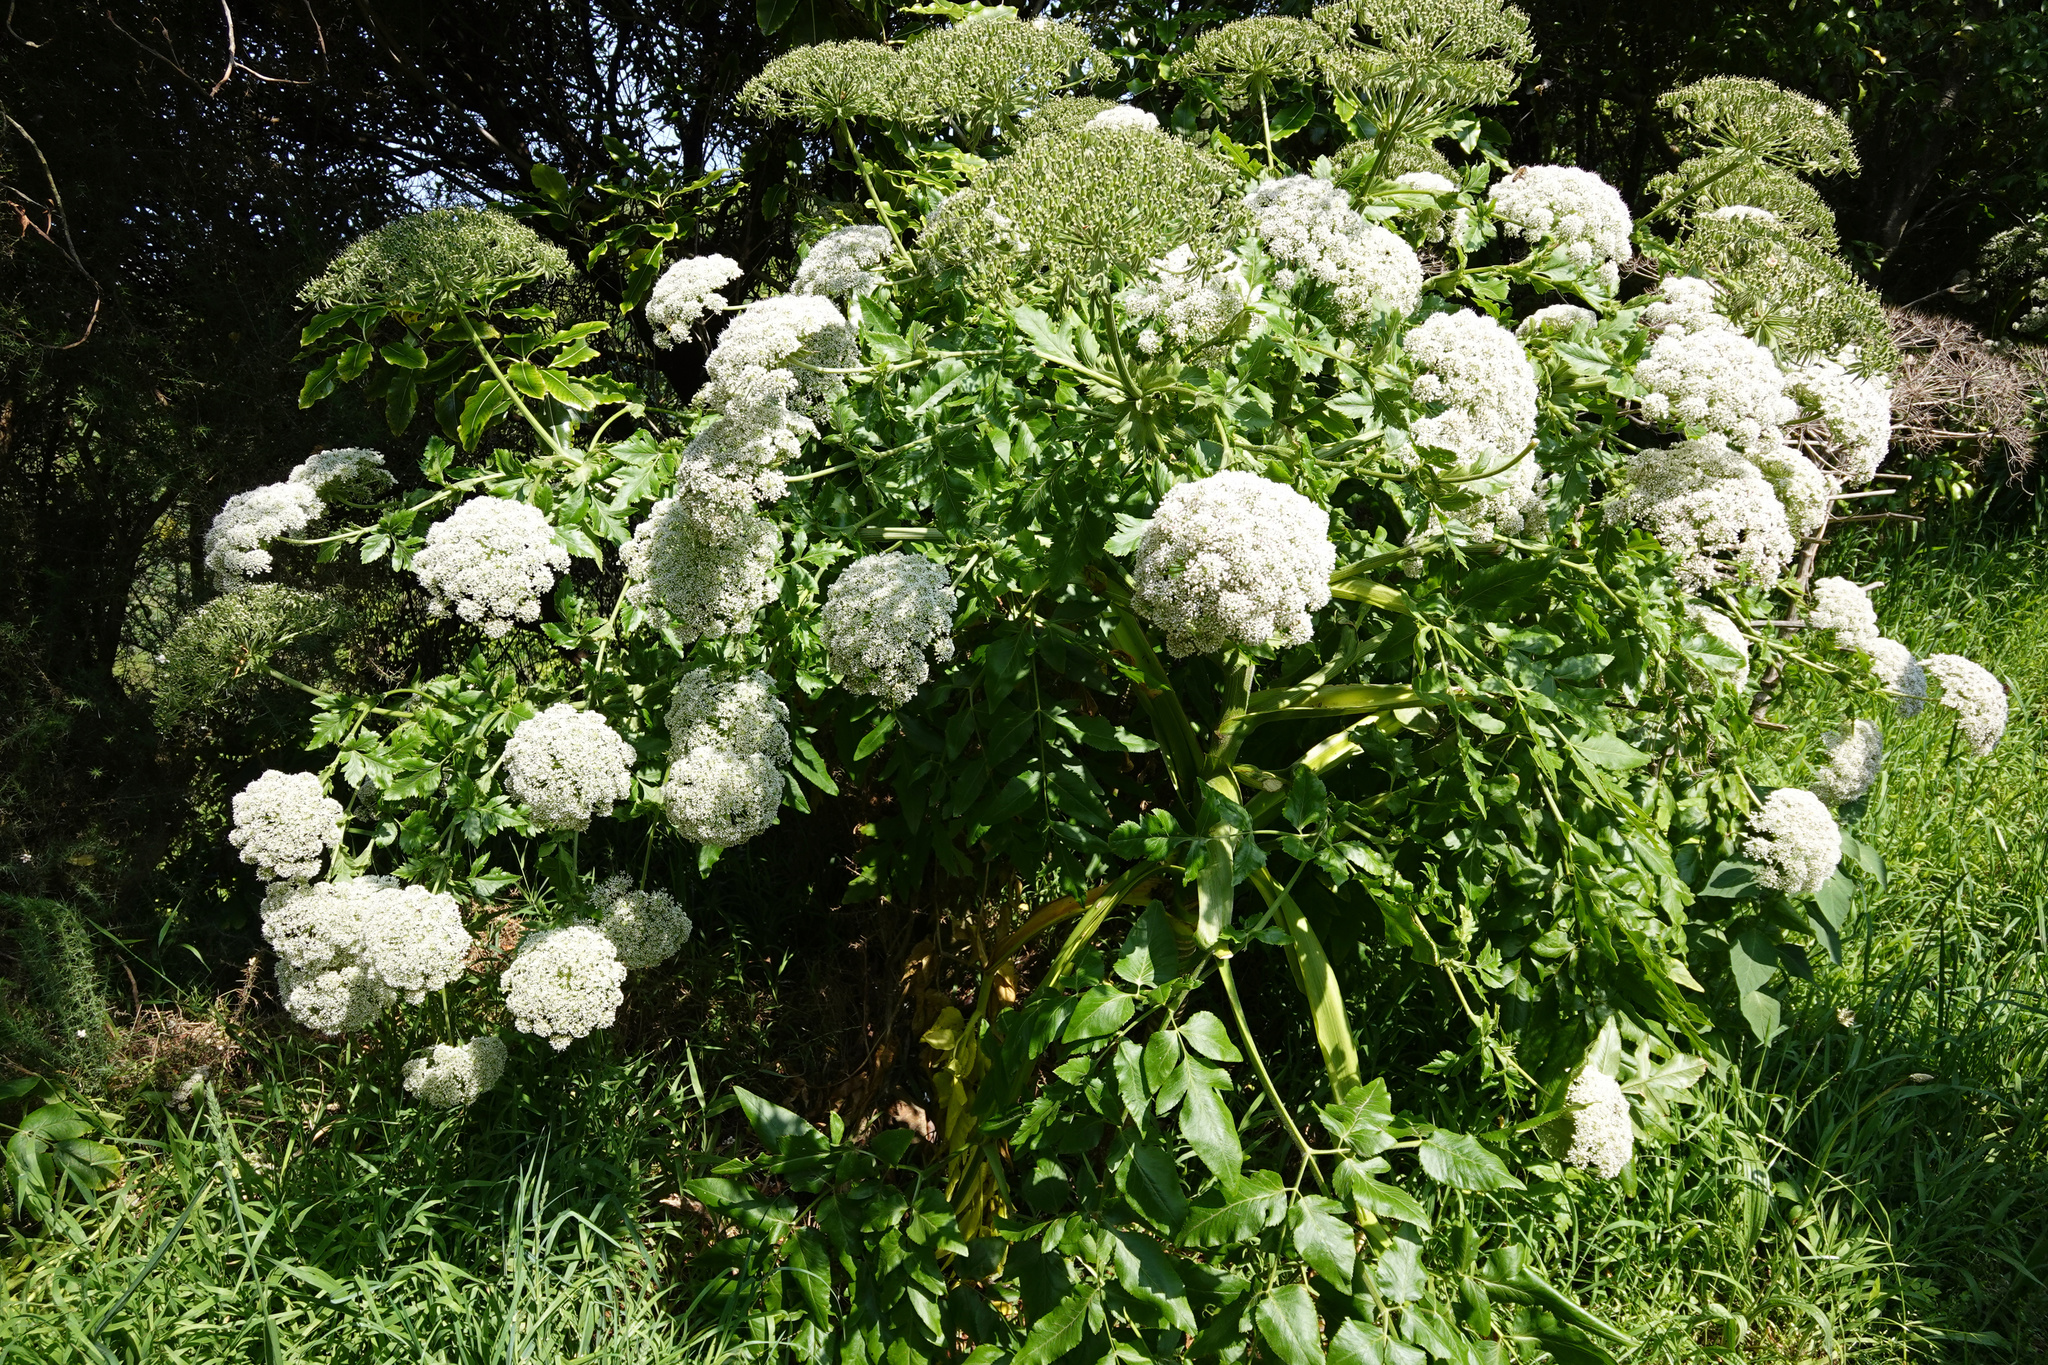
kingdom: Plantae
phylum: Tracheophyta
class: Magnoliopsida
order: Apiales
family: Apiaceae
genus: Daucus
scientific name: Daucus decipiens
